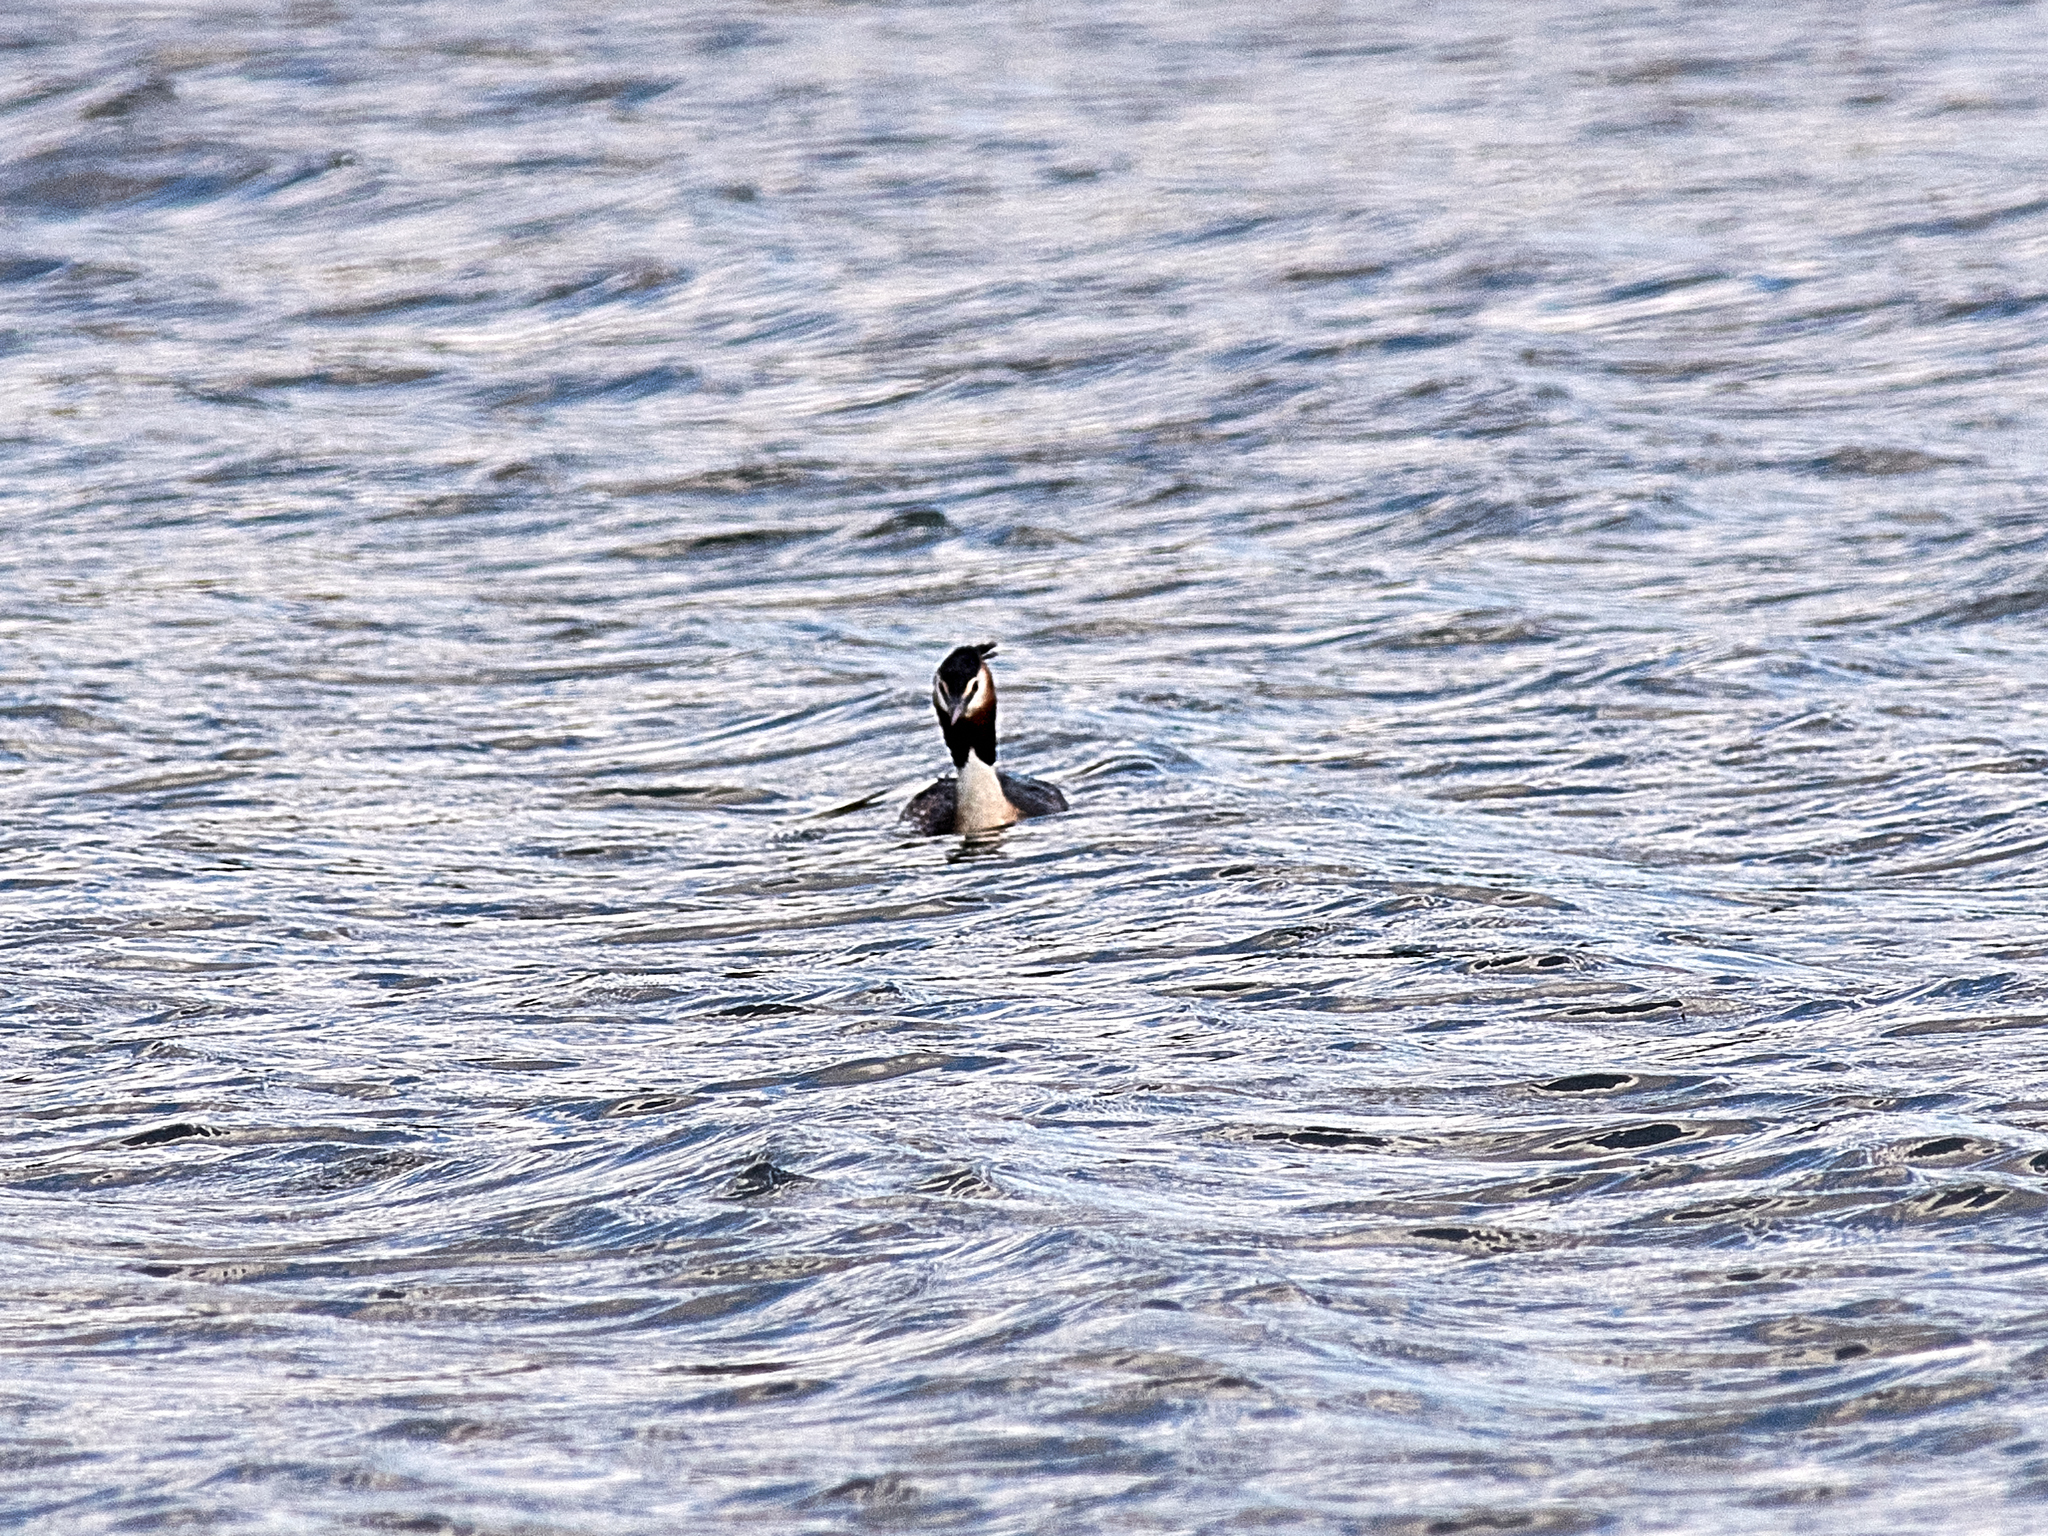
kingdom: Animalia
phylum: Chordata
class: Aves
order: Podicipediformes
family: Podicipedidae
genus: Podiceps
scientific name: Podiceps cristatus
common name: Great crested grebe
